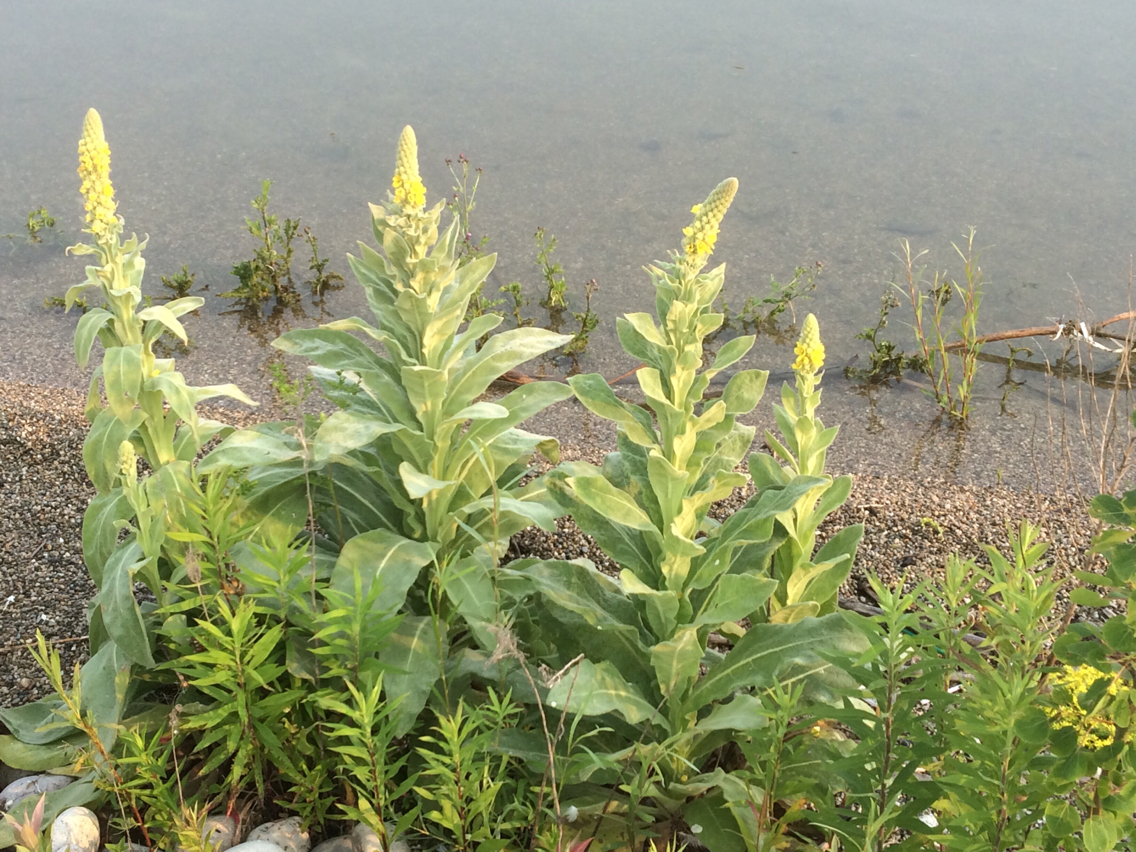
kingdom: Plantae
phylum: Tracheophyta
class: Magnoliopsida
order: Lamiales
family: Scrophulariaceae
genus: Verbascum
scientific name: Verbascum thapsus
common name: Common mullein
